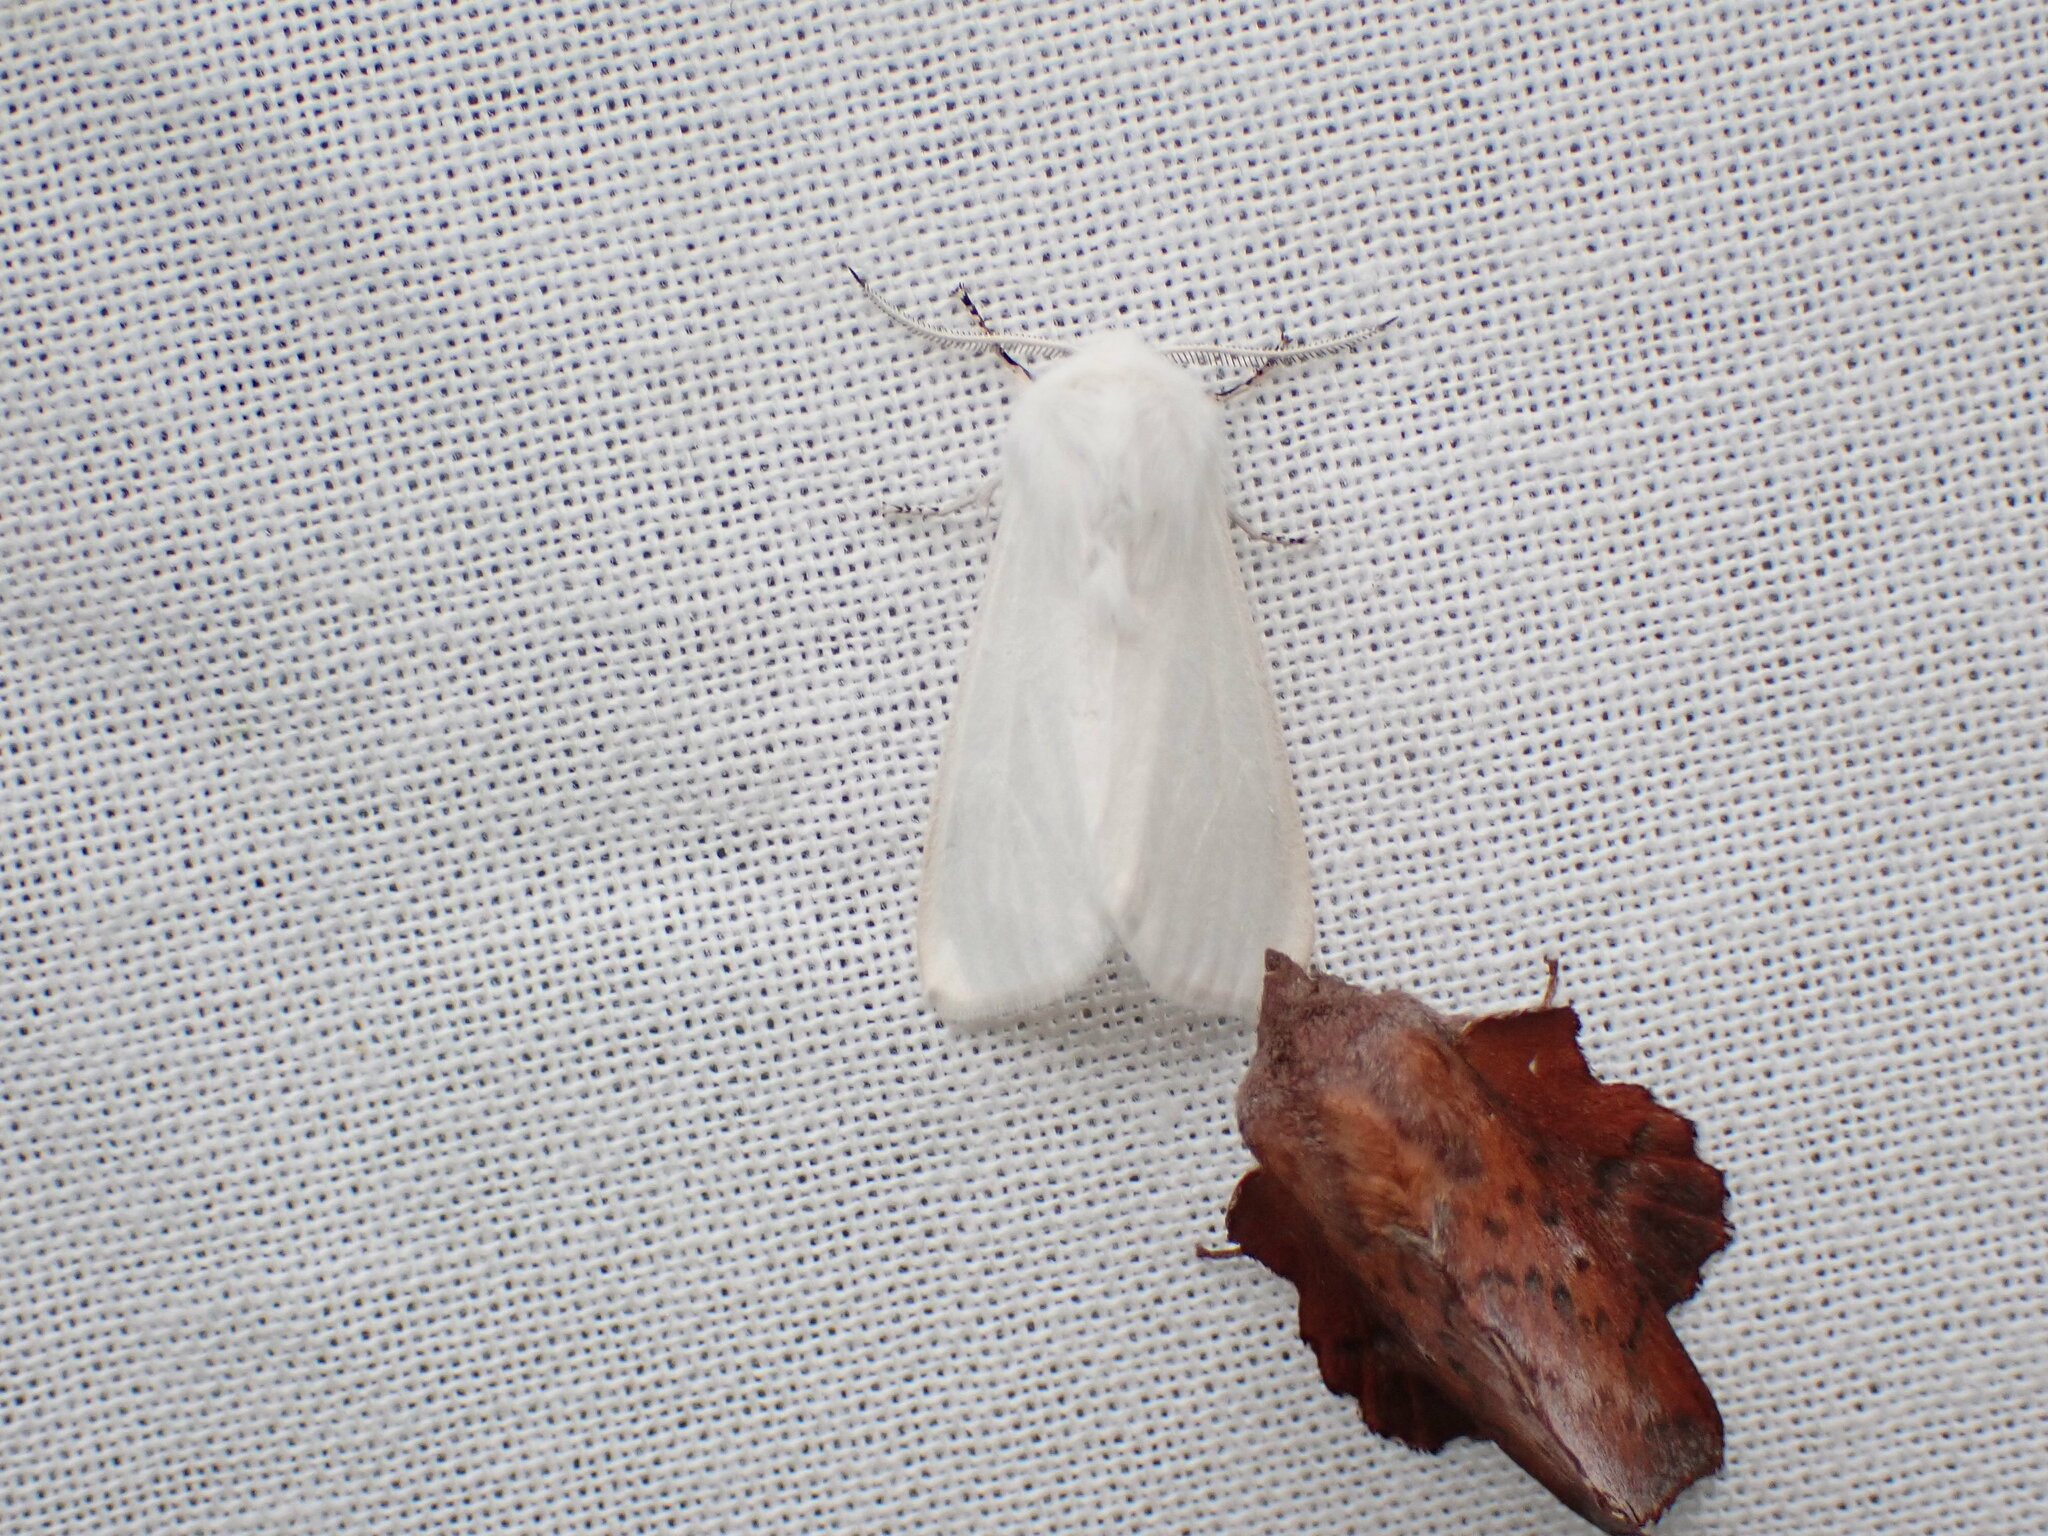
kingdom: Animalia
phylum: Arthropoda
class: Insecta
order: Lepidoptera
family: Erebidae
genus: Hyphantria
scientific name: Hyphantria cunea
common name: American white moth
